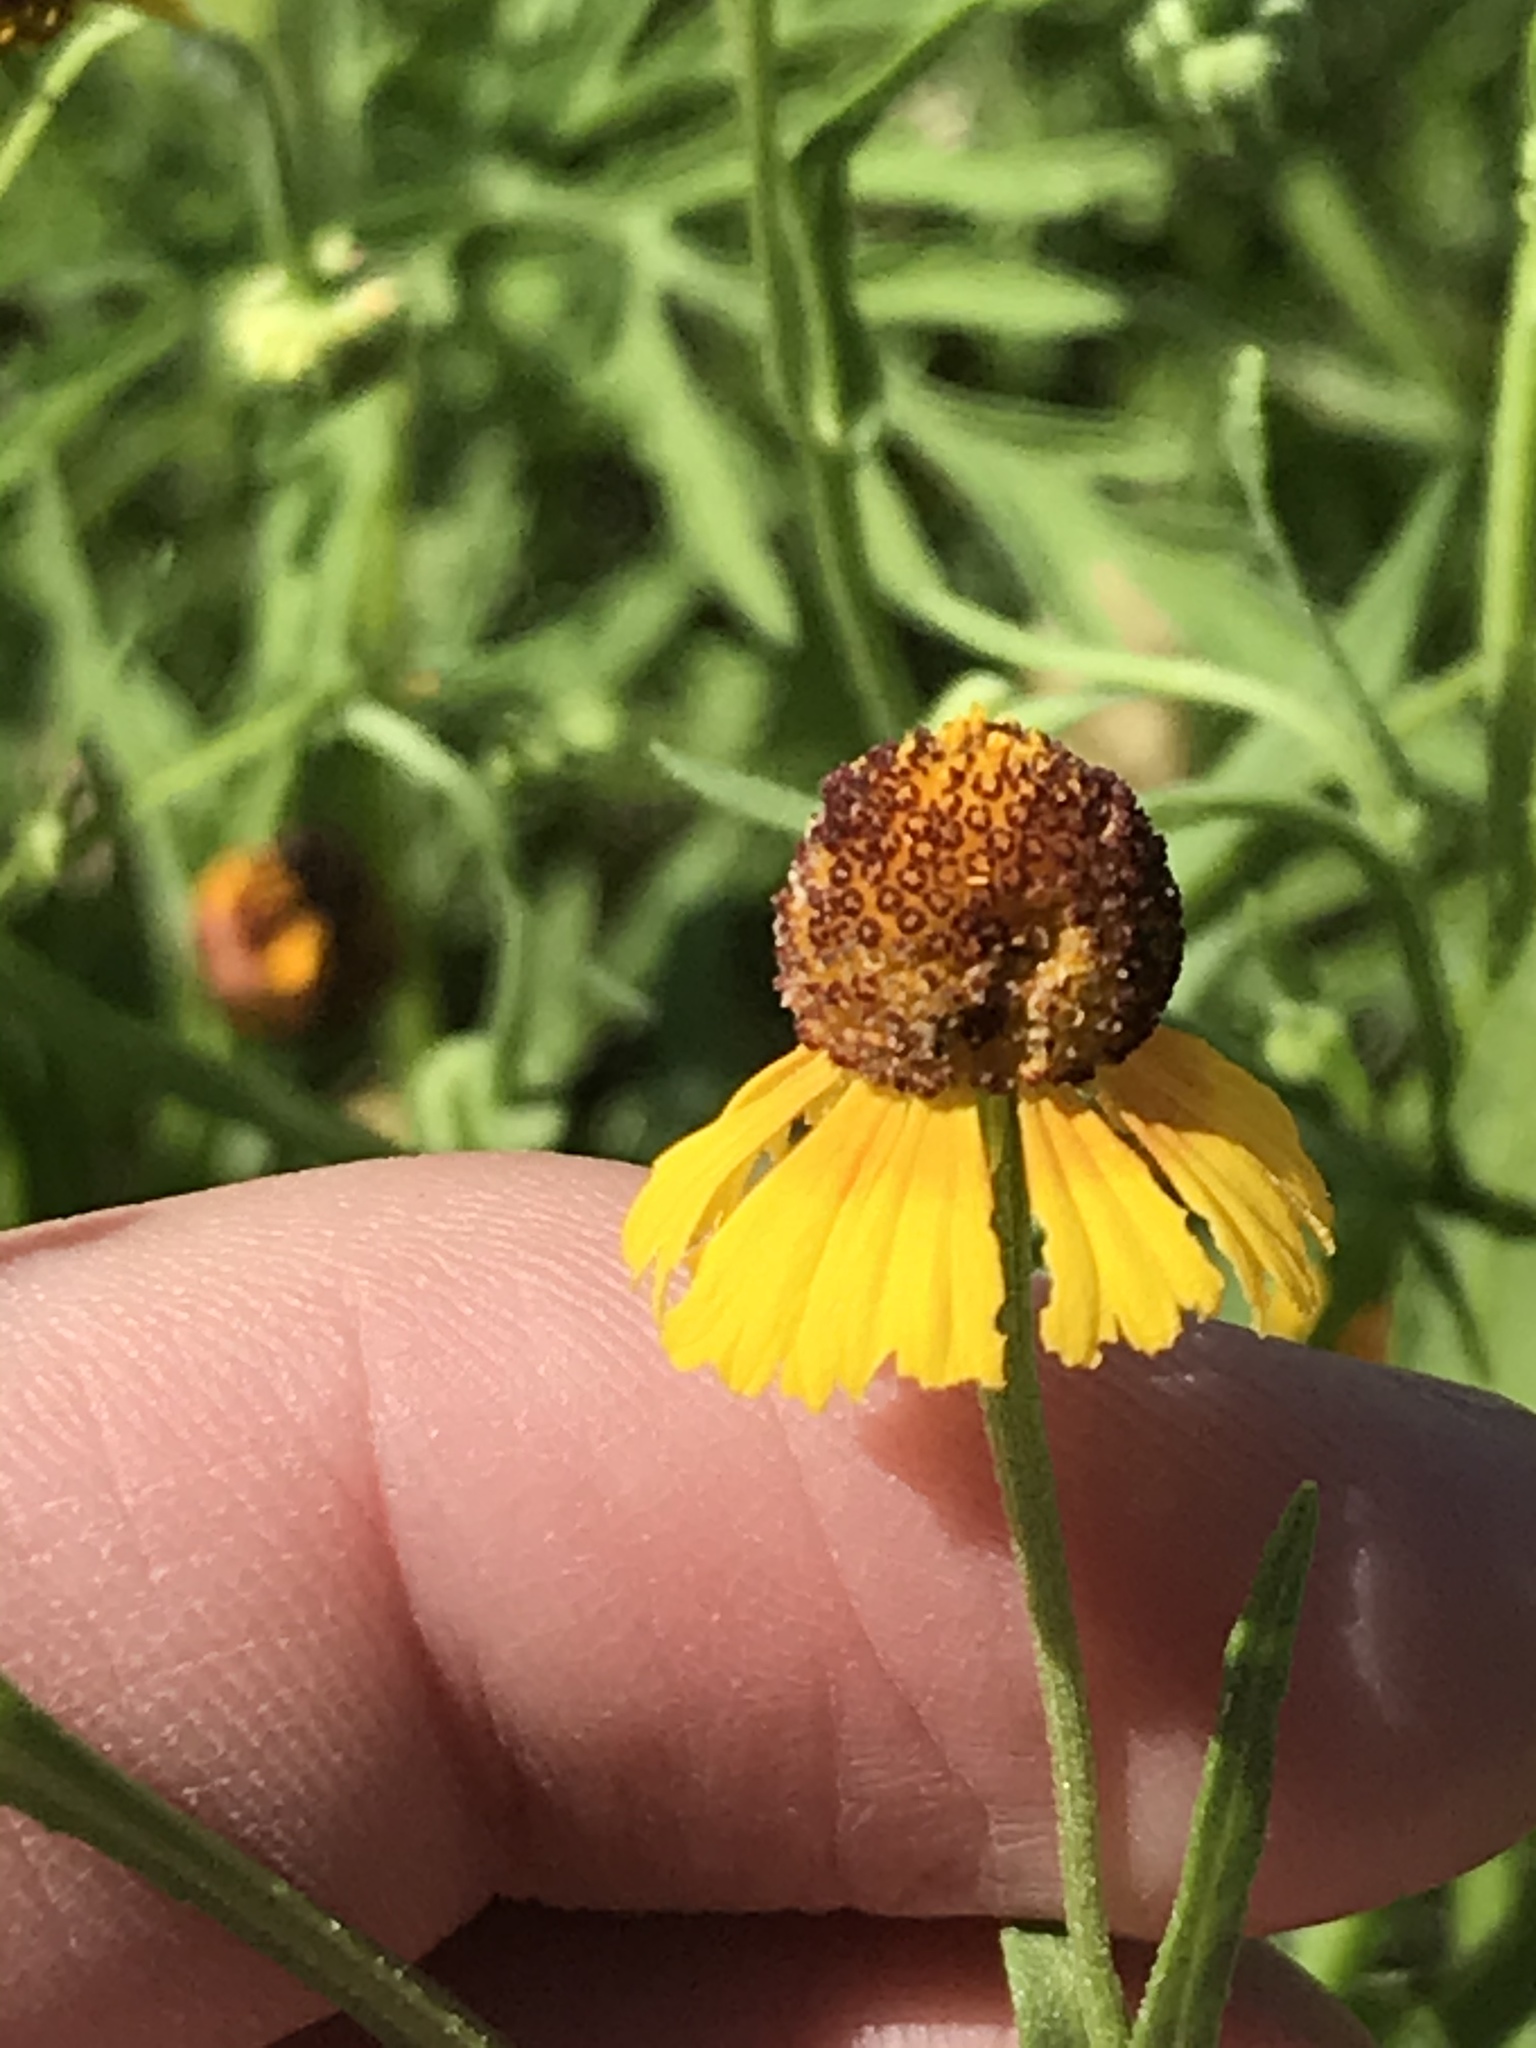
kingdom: Plantae
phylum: Tracheophyta
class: Magnoliopsida
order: Asterales
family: Asteraceae
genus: Helenium
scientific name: Helenium elegans
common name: Pretty sneezeweed
